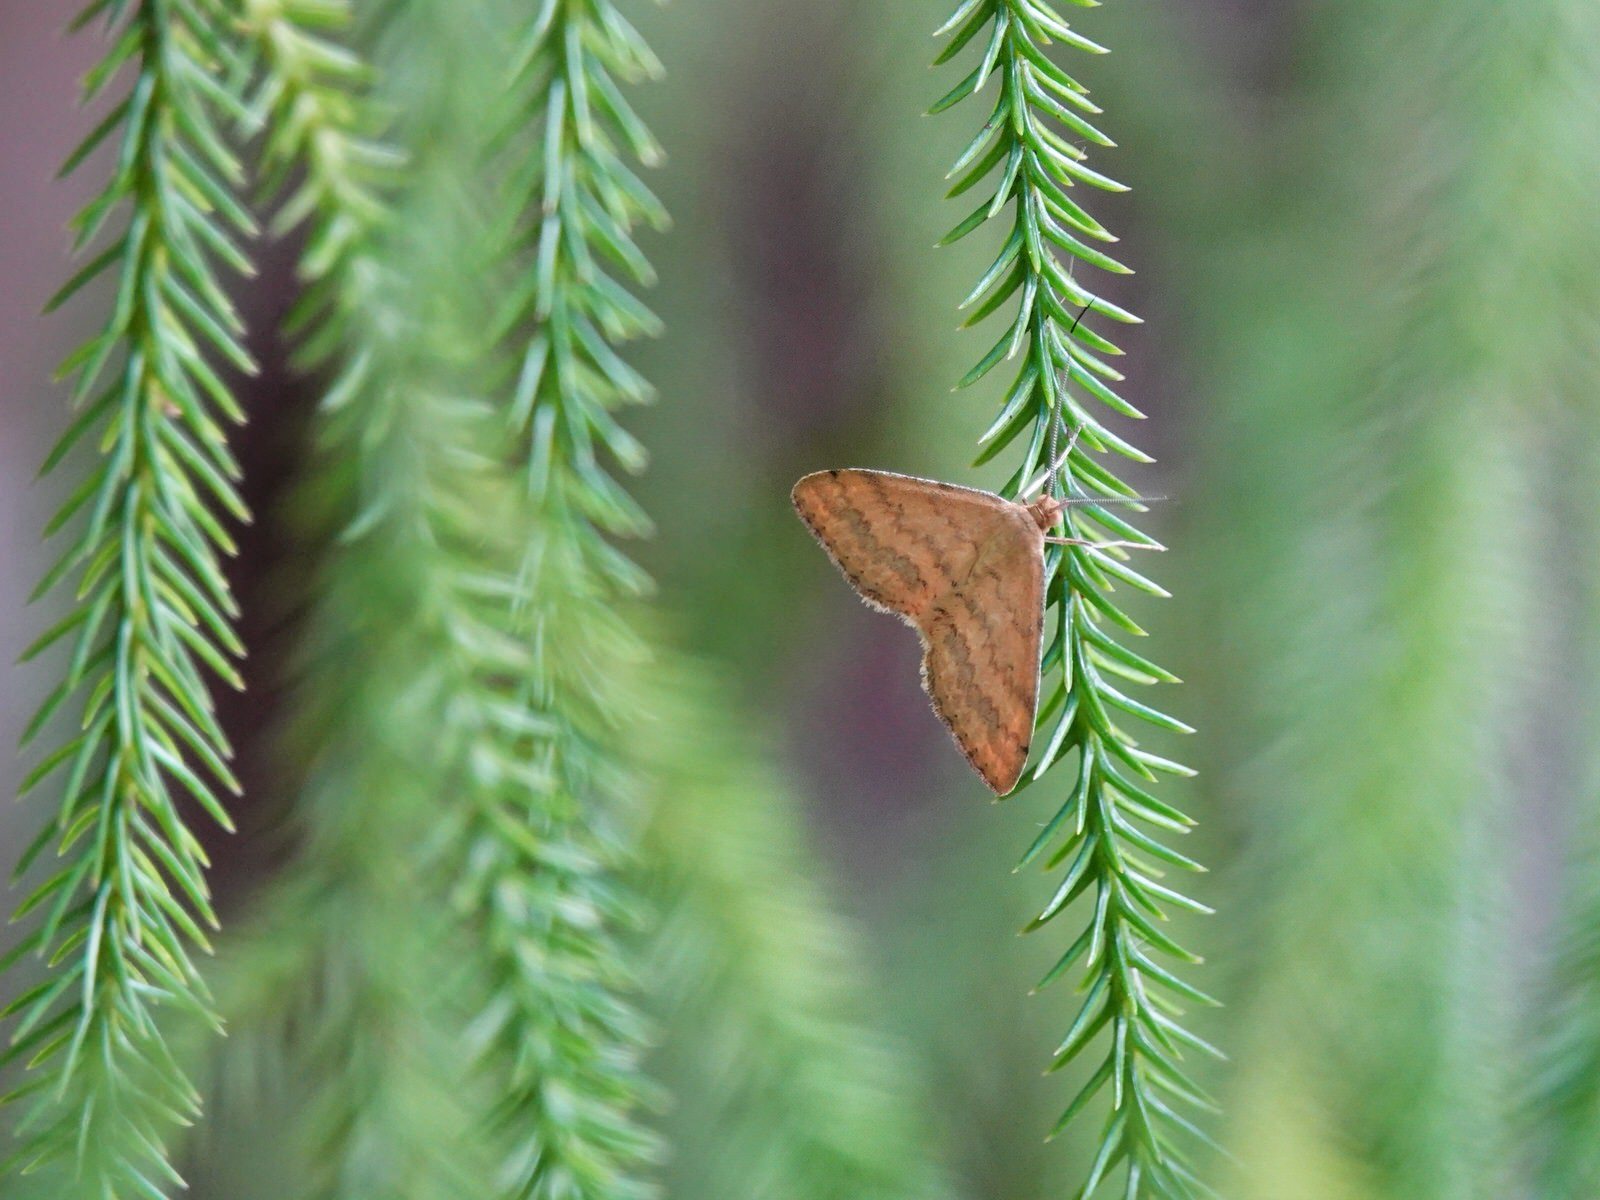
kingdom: Animalia
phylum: Arthropoda
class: Insecta
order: Lepidoptera
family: Geometridae
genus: Scopula
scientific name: Scopula rubraria
